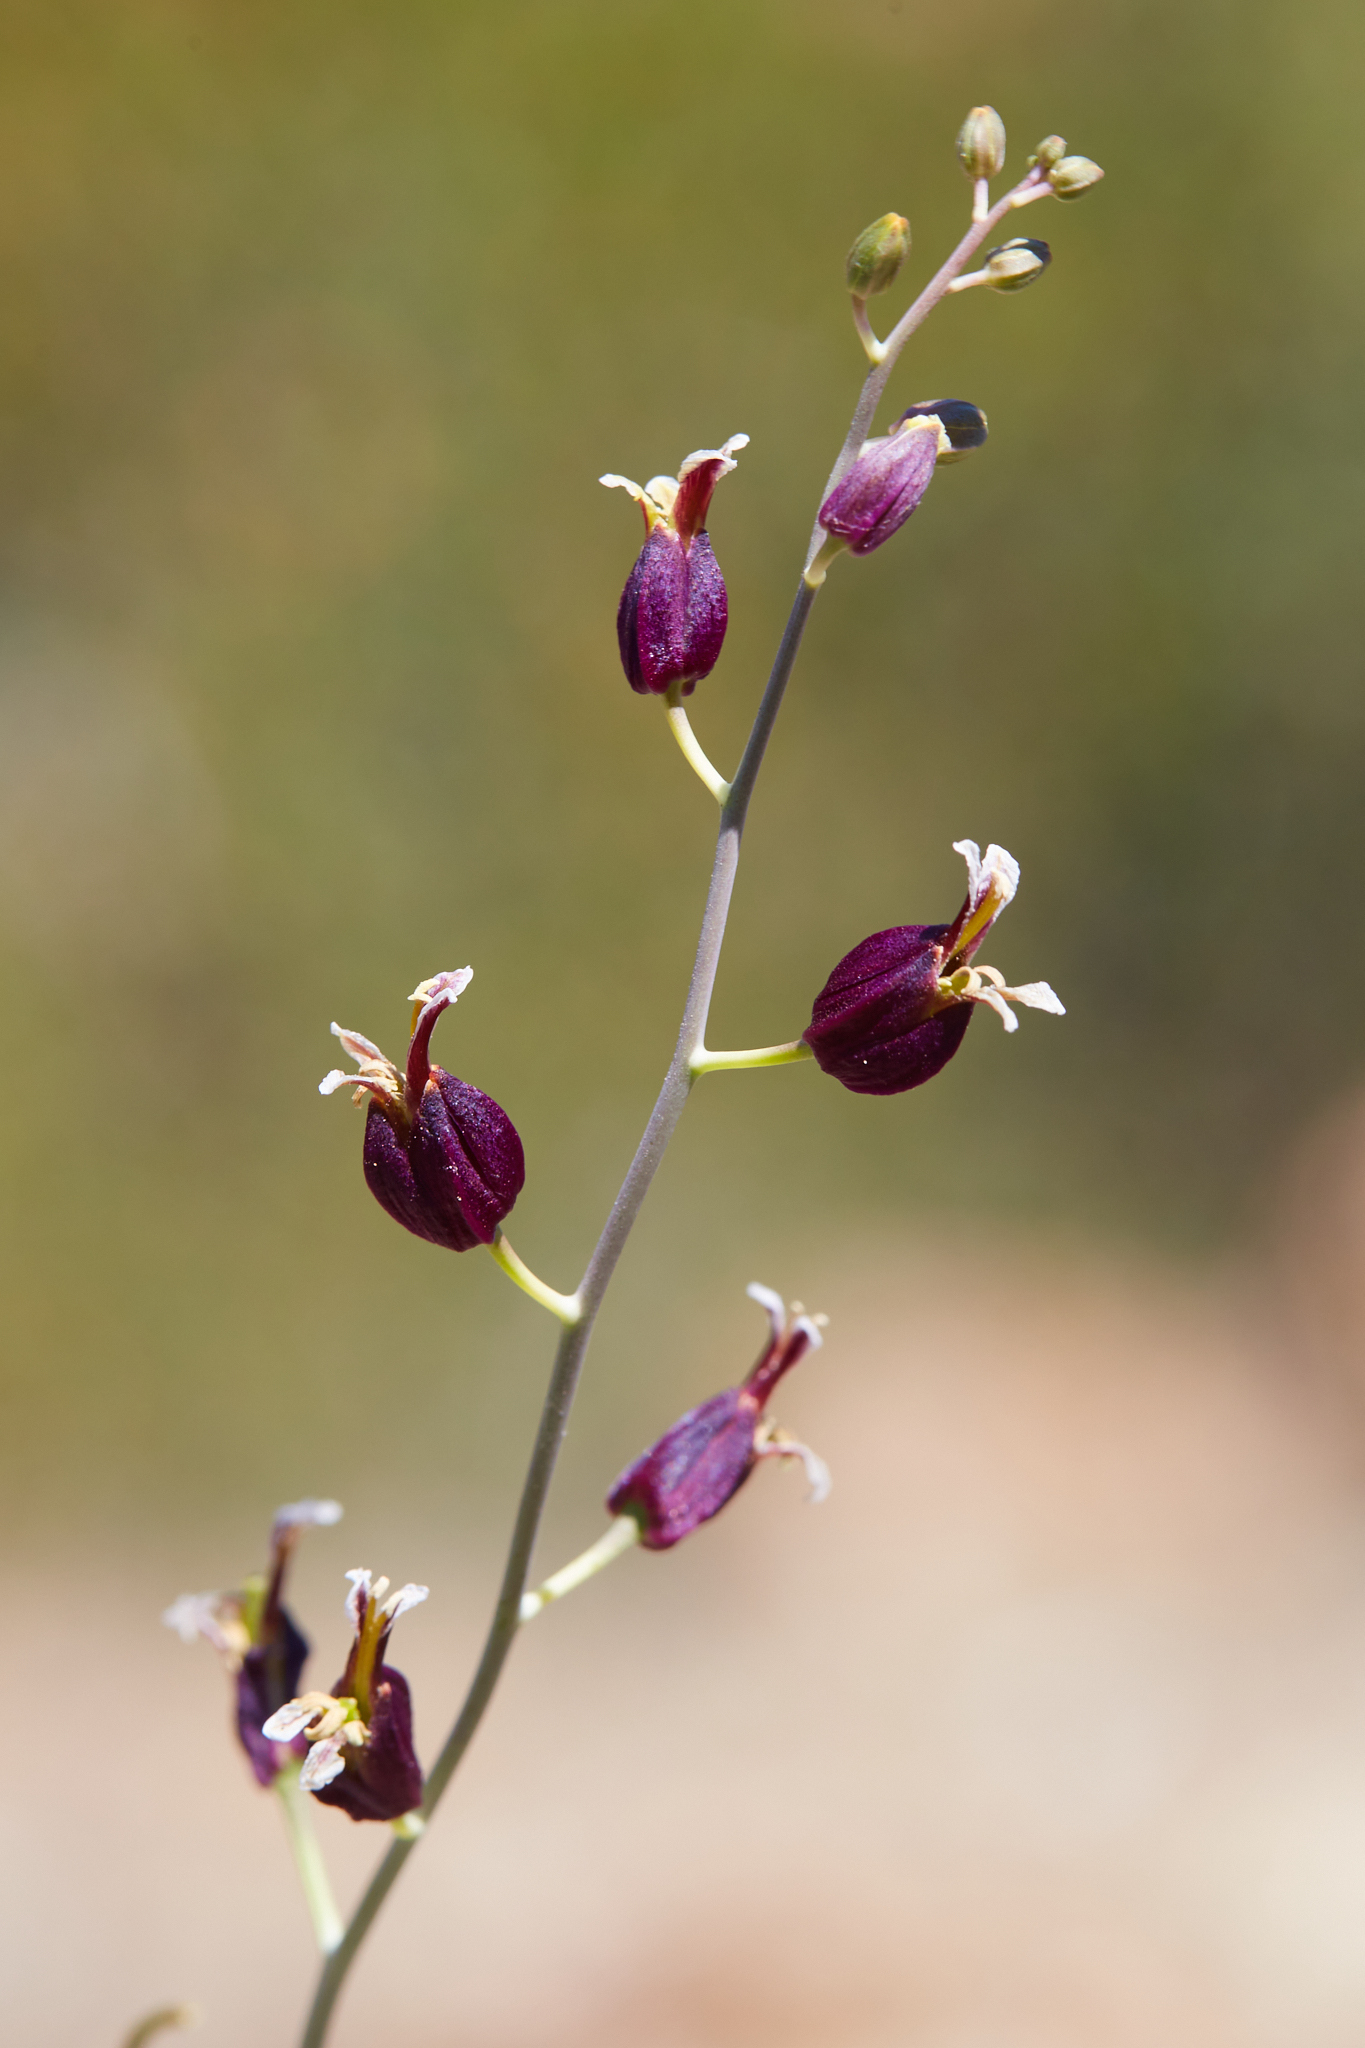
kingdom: Plantae
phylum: Tracheophyta
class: Magnoliopsida
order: Brassicales
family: Brassicaceae
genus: Streptanthus
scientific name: Streptanthus glandulosus
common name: Jewel-flower
